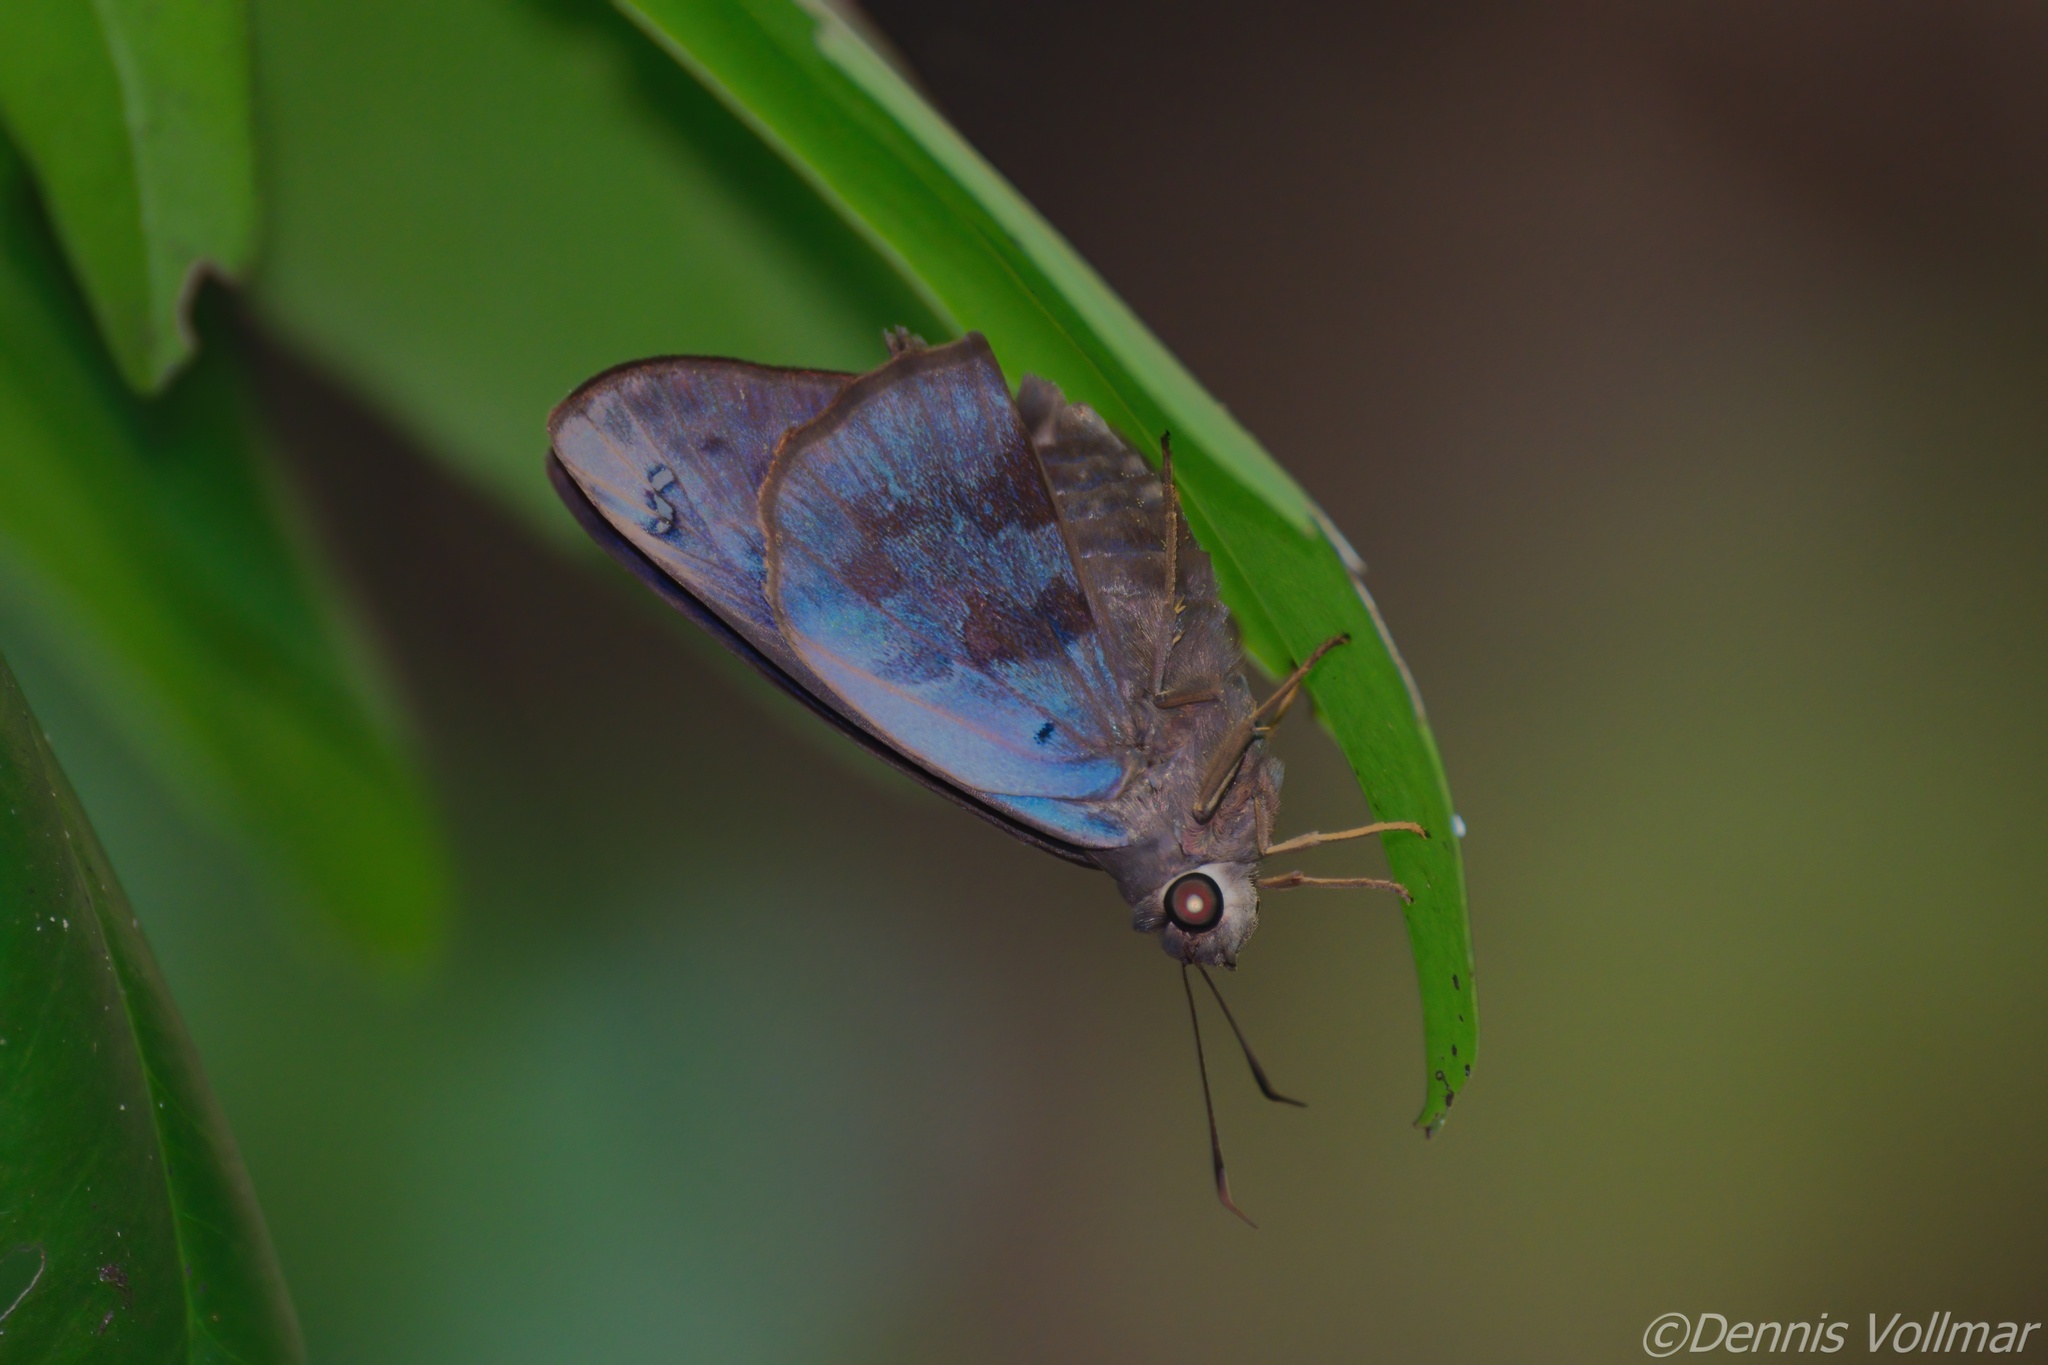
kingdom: Animalia
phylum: Arthropoda
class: Insecta
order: Lepidoptera
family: Hesperiidae
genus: Polygonus
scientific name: Polygonus leo
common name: Hammoch skipper
